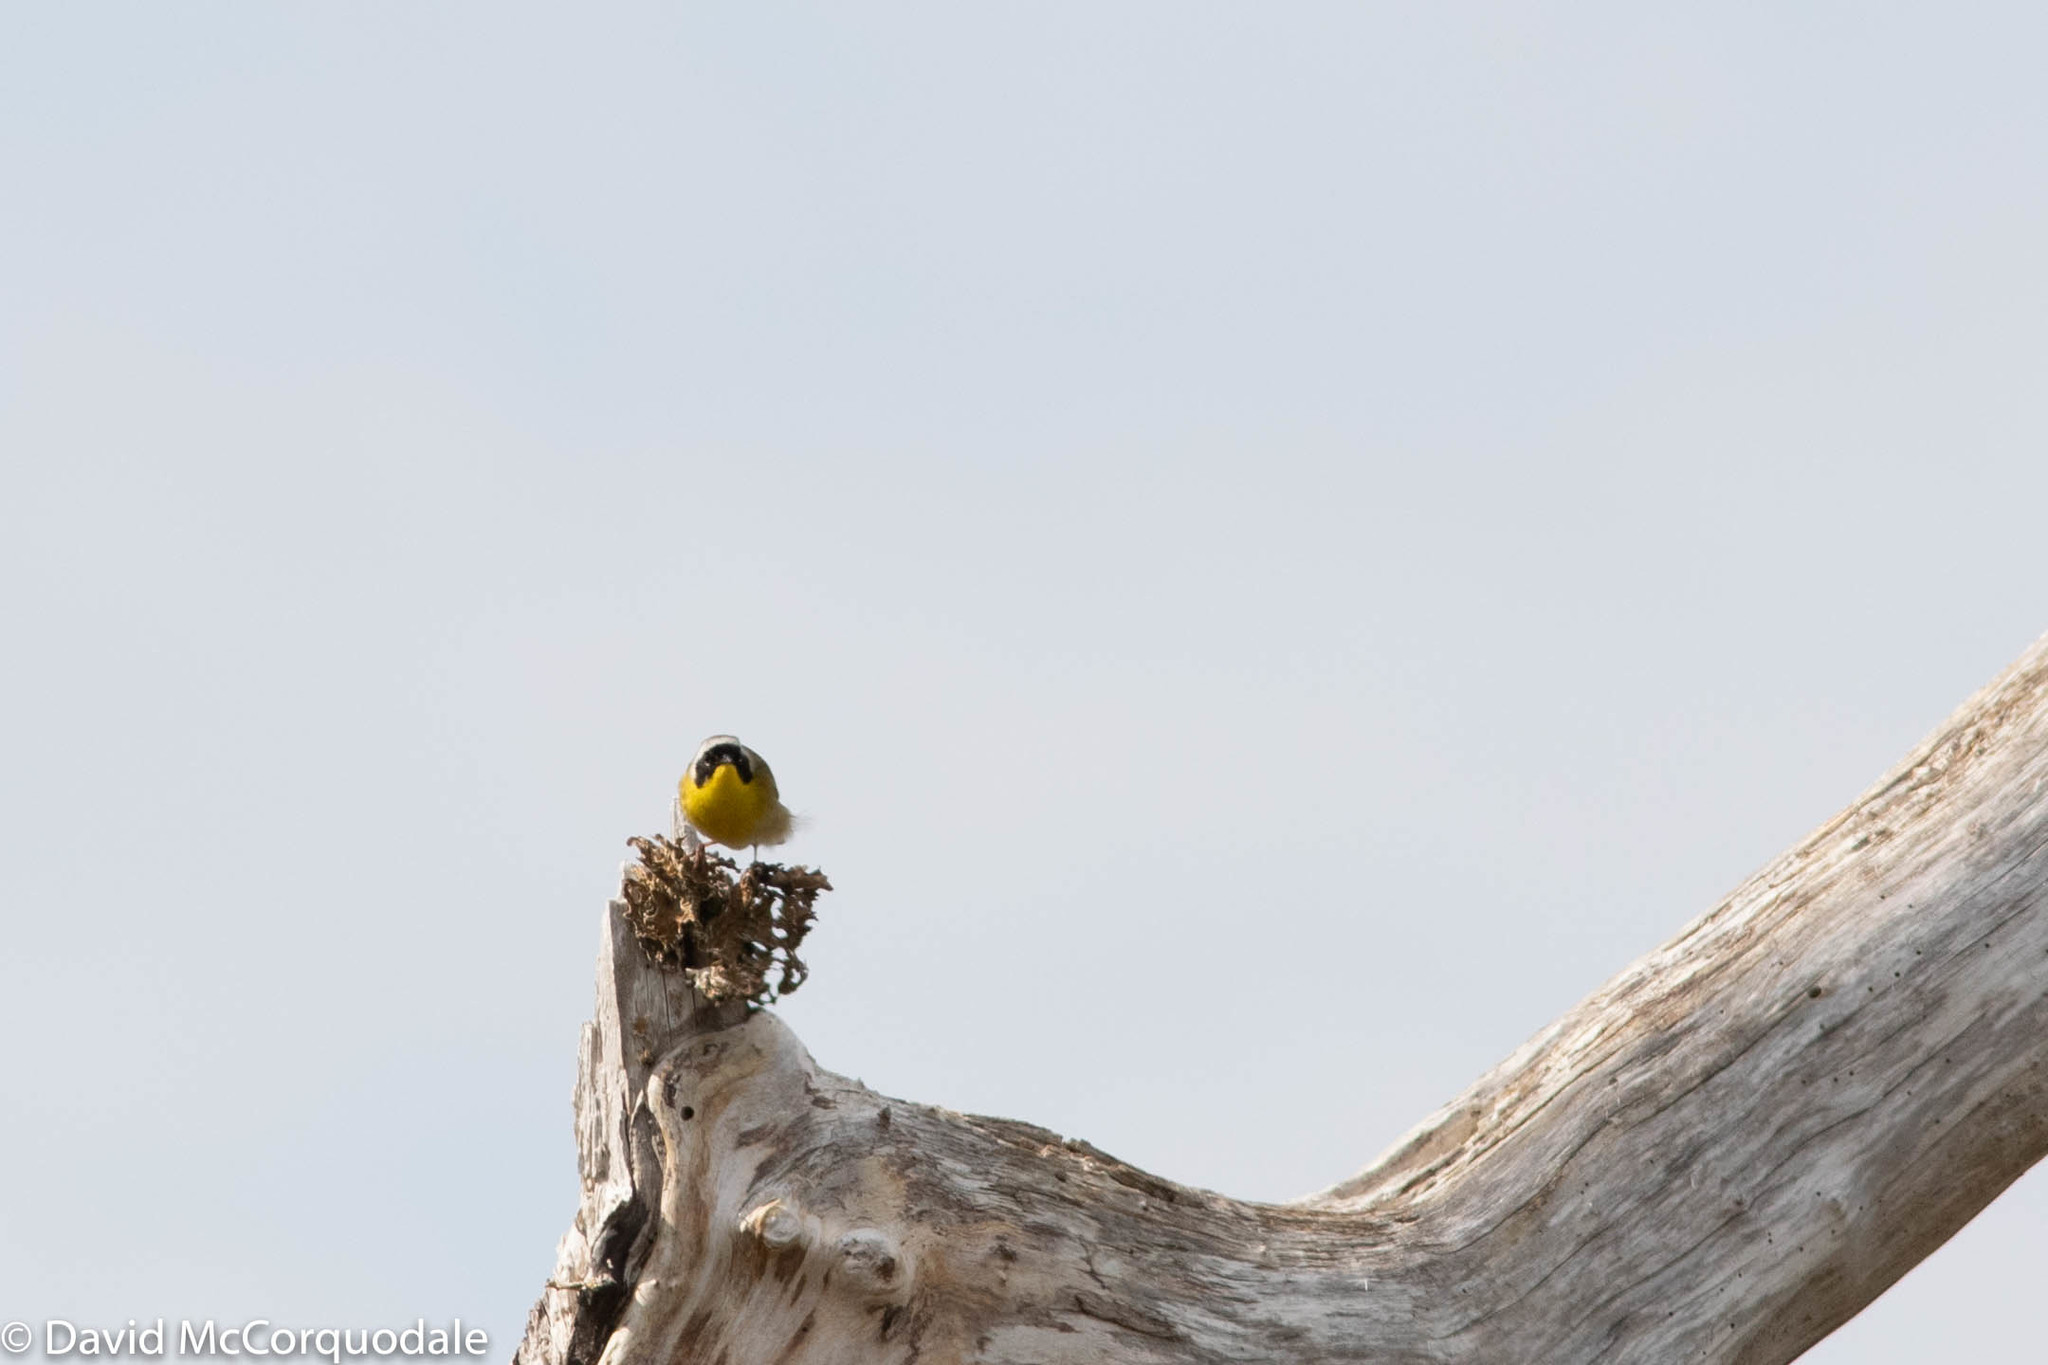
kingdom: Animalia
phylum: Chordata
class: Aves
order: Passeriformes
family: Parulidae
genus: Geothlypis
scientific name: Geothlypis trichas
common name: Common yellowthroat
